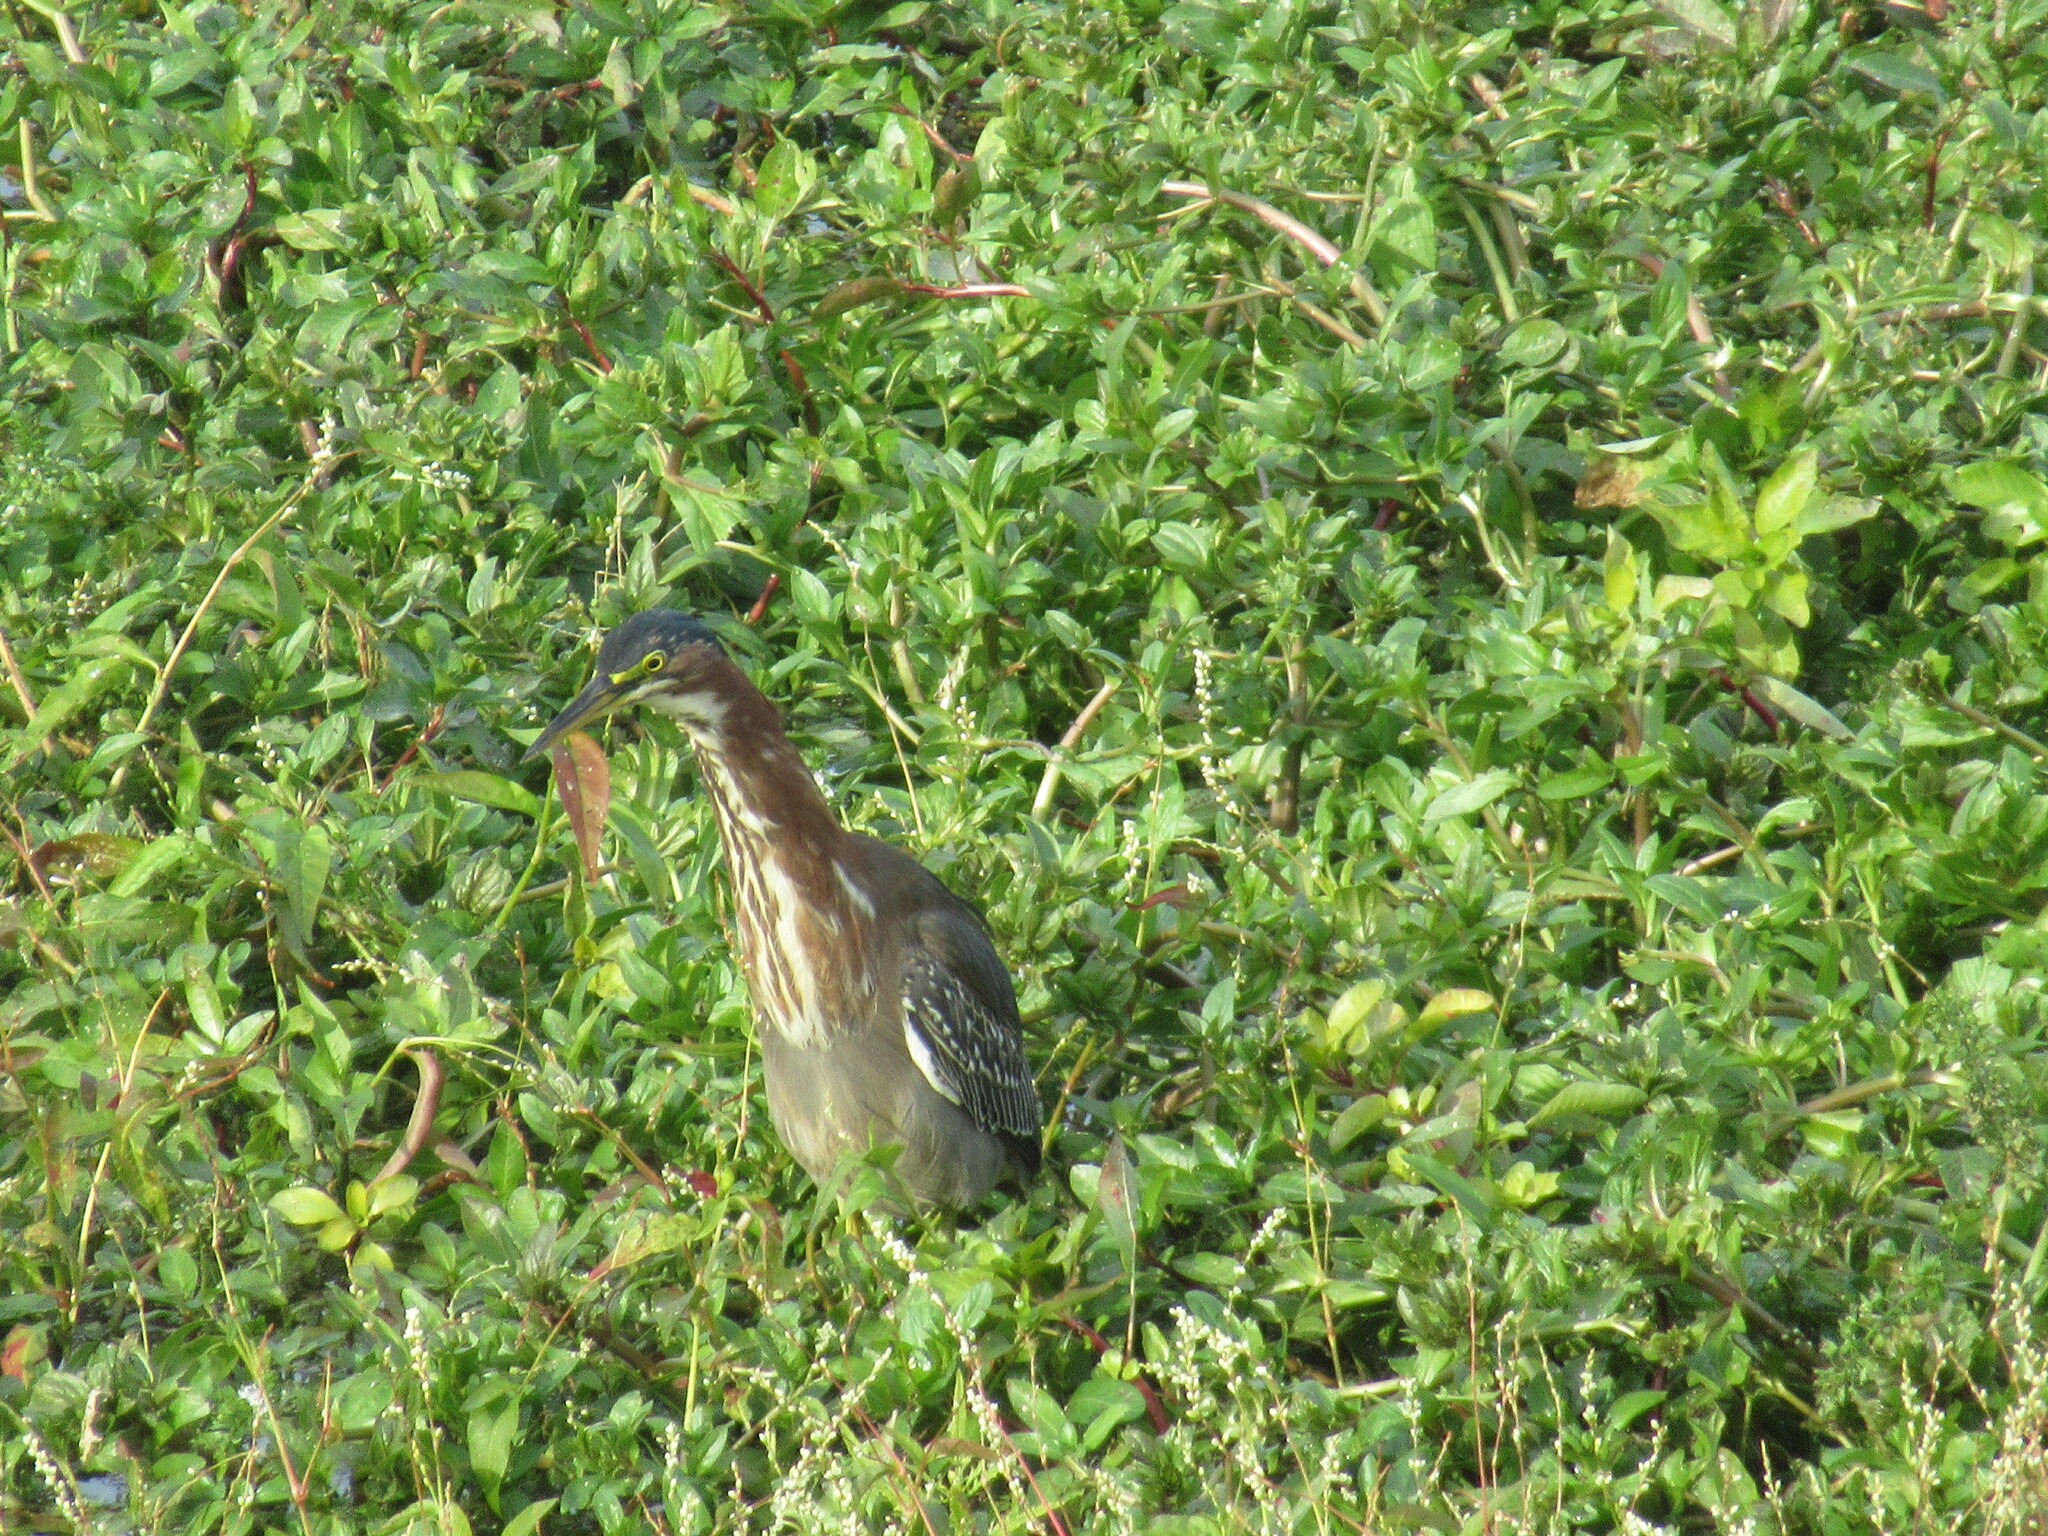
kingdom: Animalia
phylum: Chordata
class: Aves
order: Pelecaniformes
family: Ardeidae
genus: Butorides
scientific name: Butorides virescens
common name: Green heron
